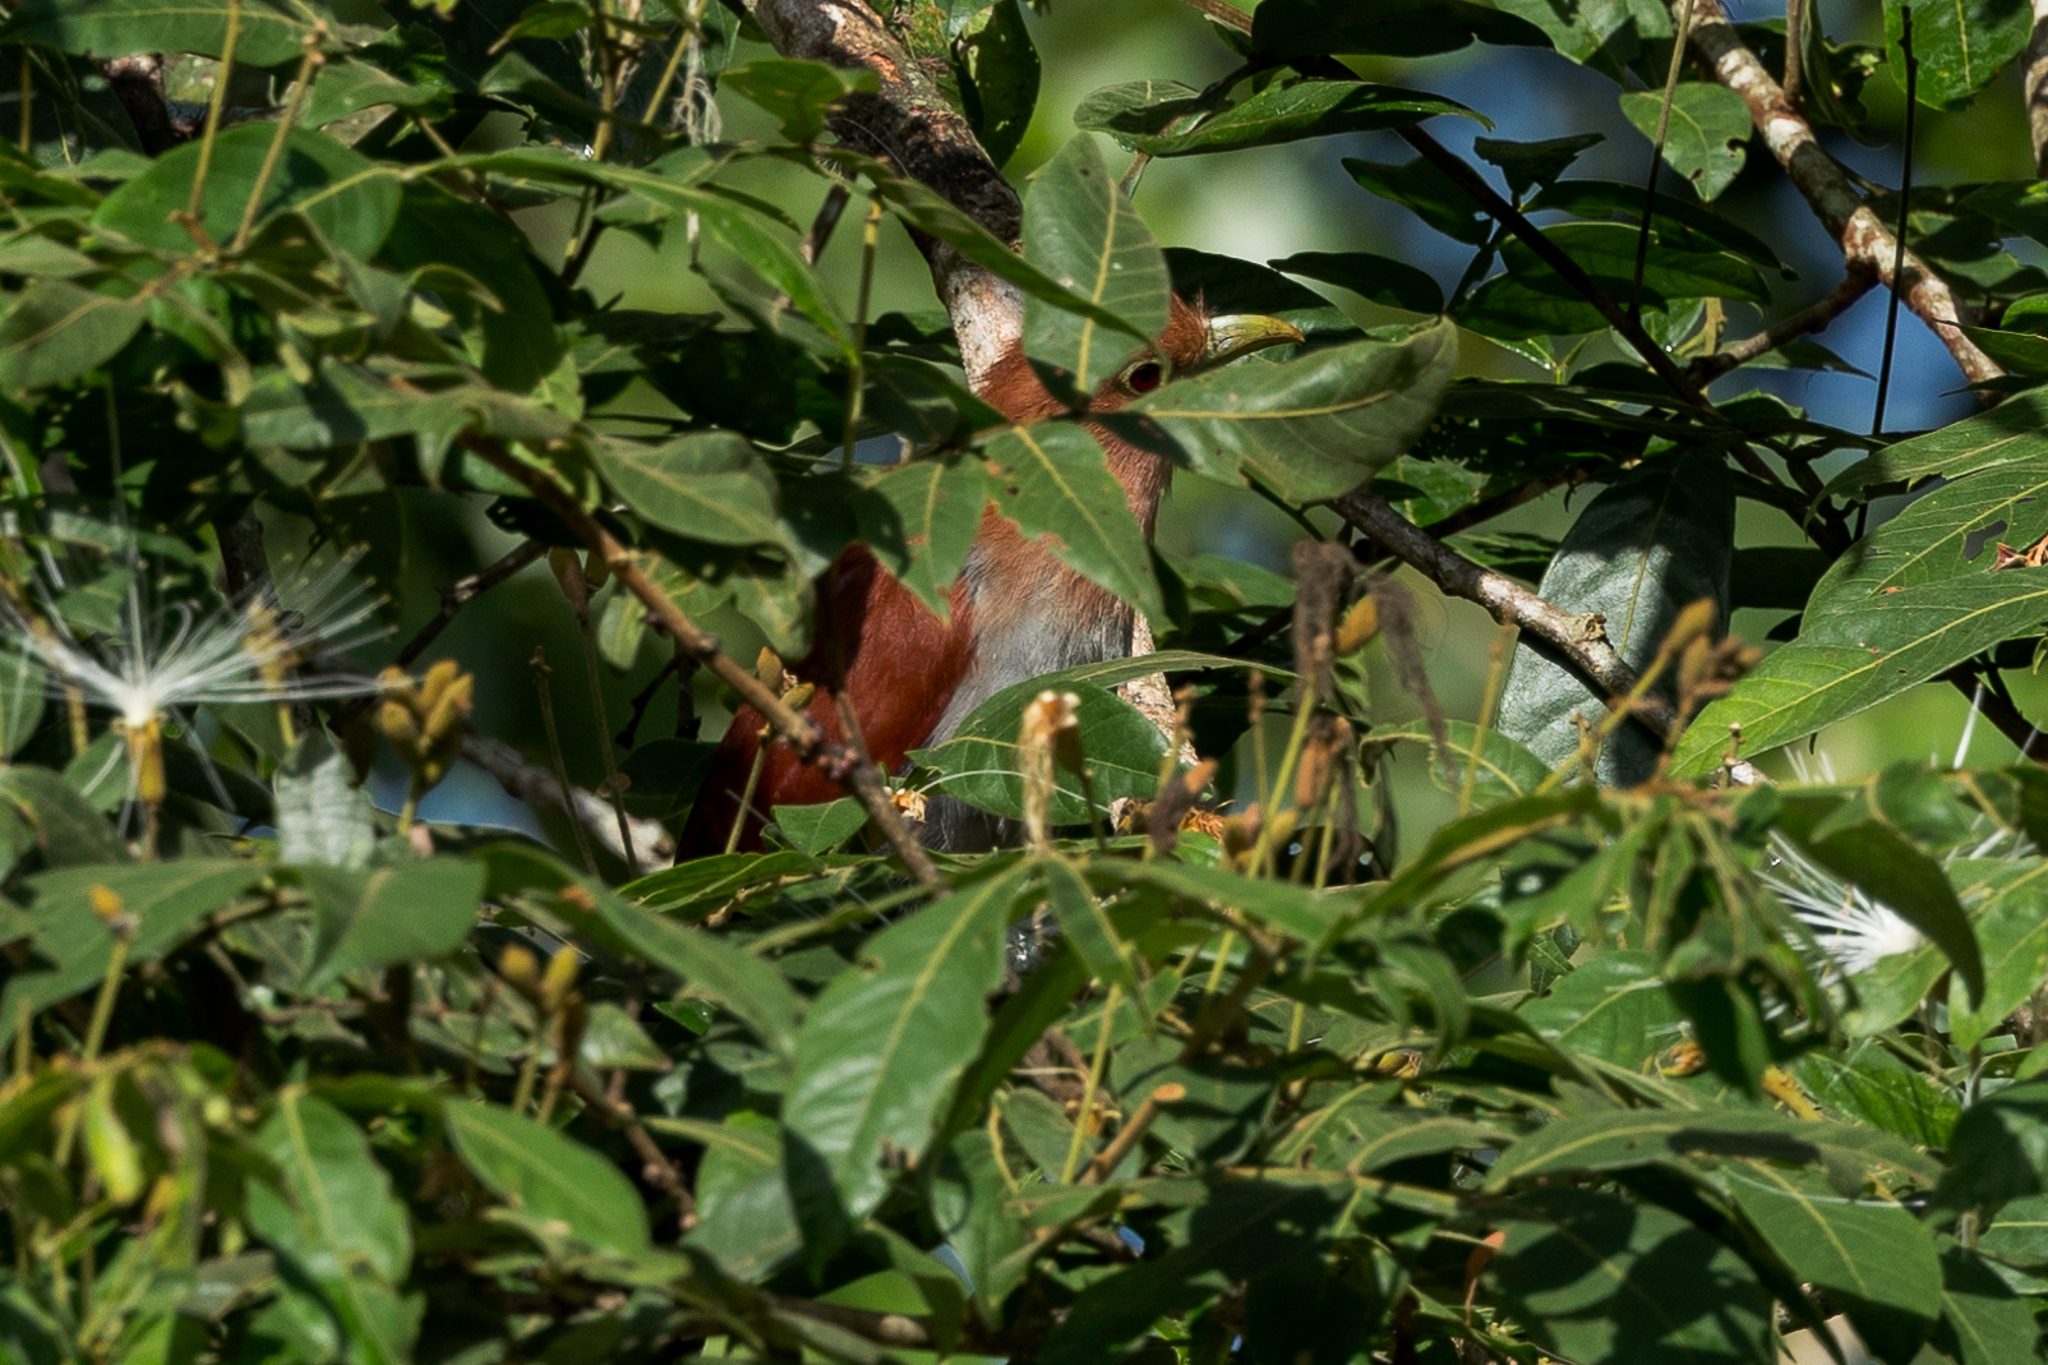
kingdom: Animalia
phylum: Chordata
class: Aves
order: Cuculiformes
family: Cuculidae
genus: Piaya
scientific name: Piaya cayana
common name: Squirrel cuckoo
